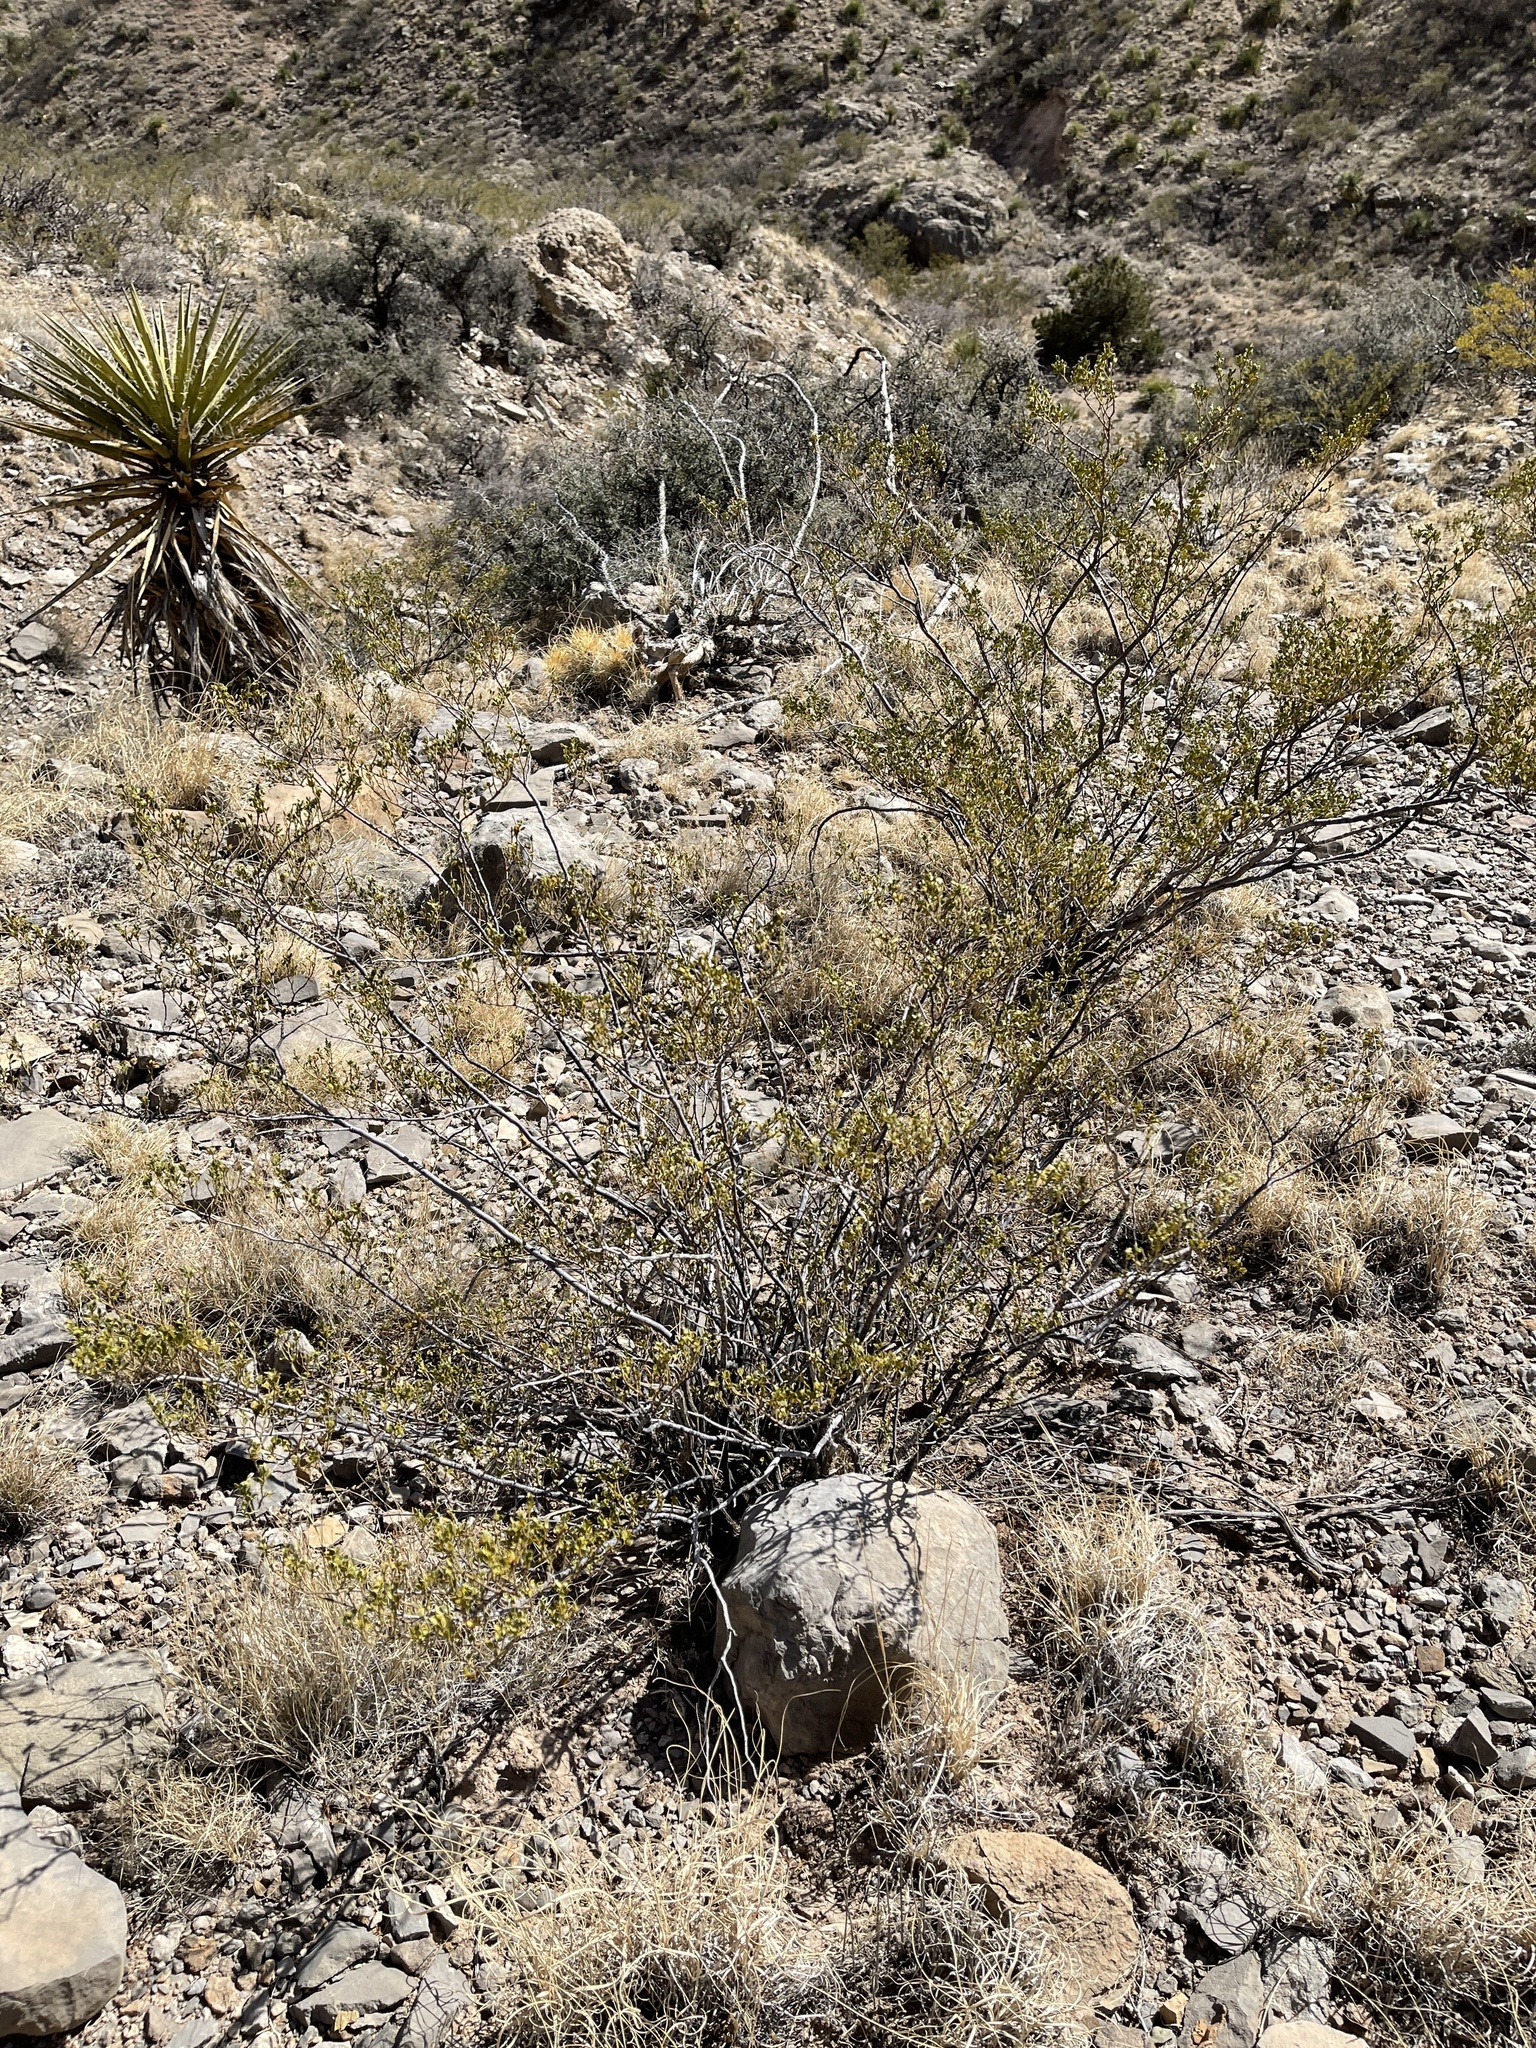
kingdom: Plantae
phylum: Tracheophyta
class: Magnoliopsida
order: Zygophyllales
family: Zygophyllaceae
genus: Larrea
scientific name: Larrea tridentata
